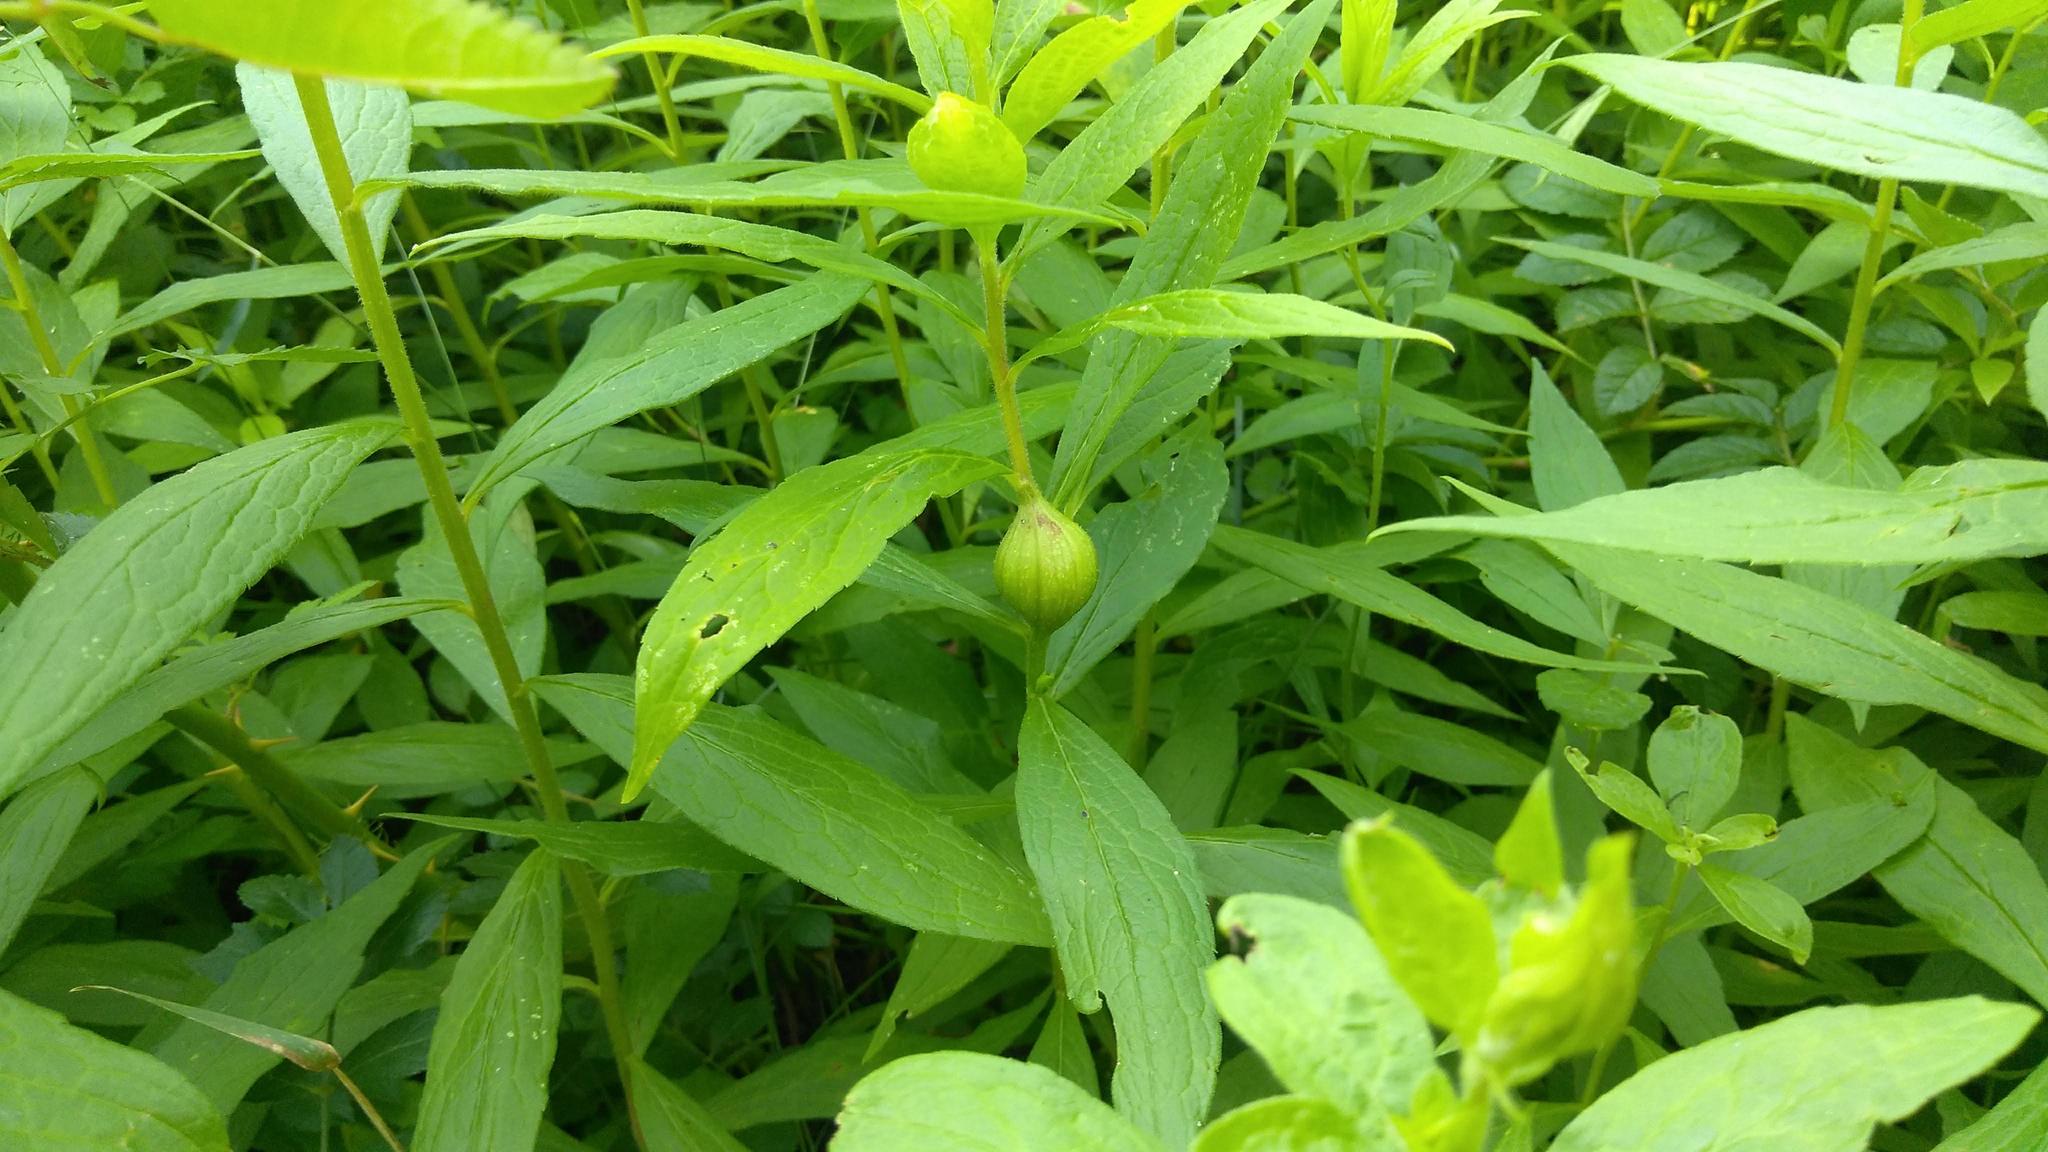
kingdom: Animalia
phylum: Arthropoda
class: Insecta
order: Diptera
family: Tephritidae
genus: Eurosta
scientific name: Eurosta solidaginis
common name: Goldenrod gall fly
